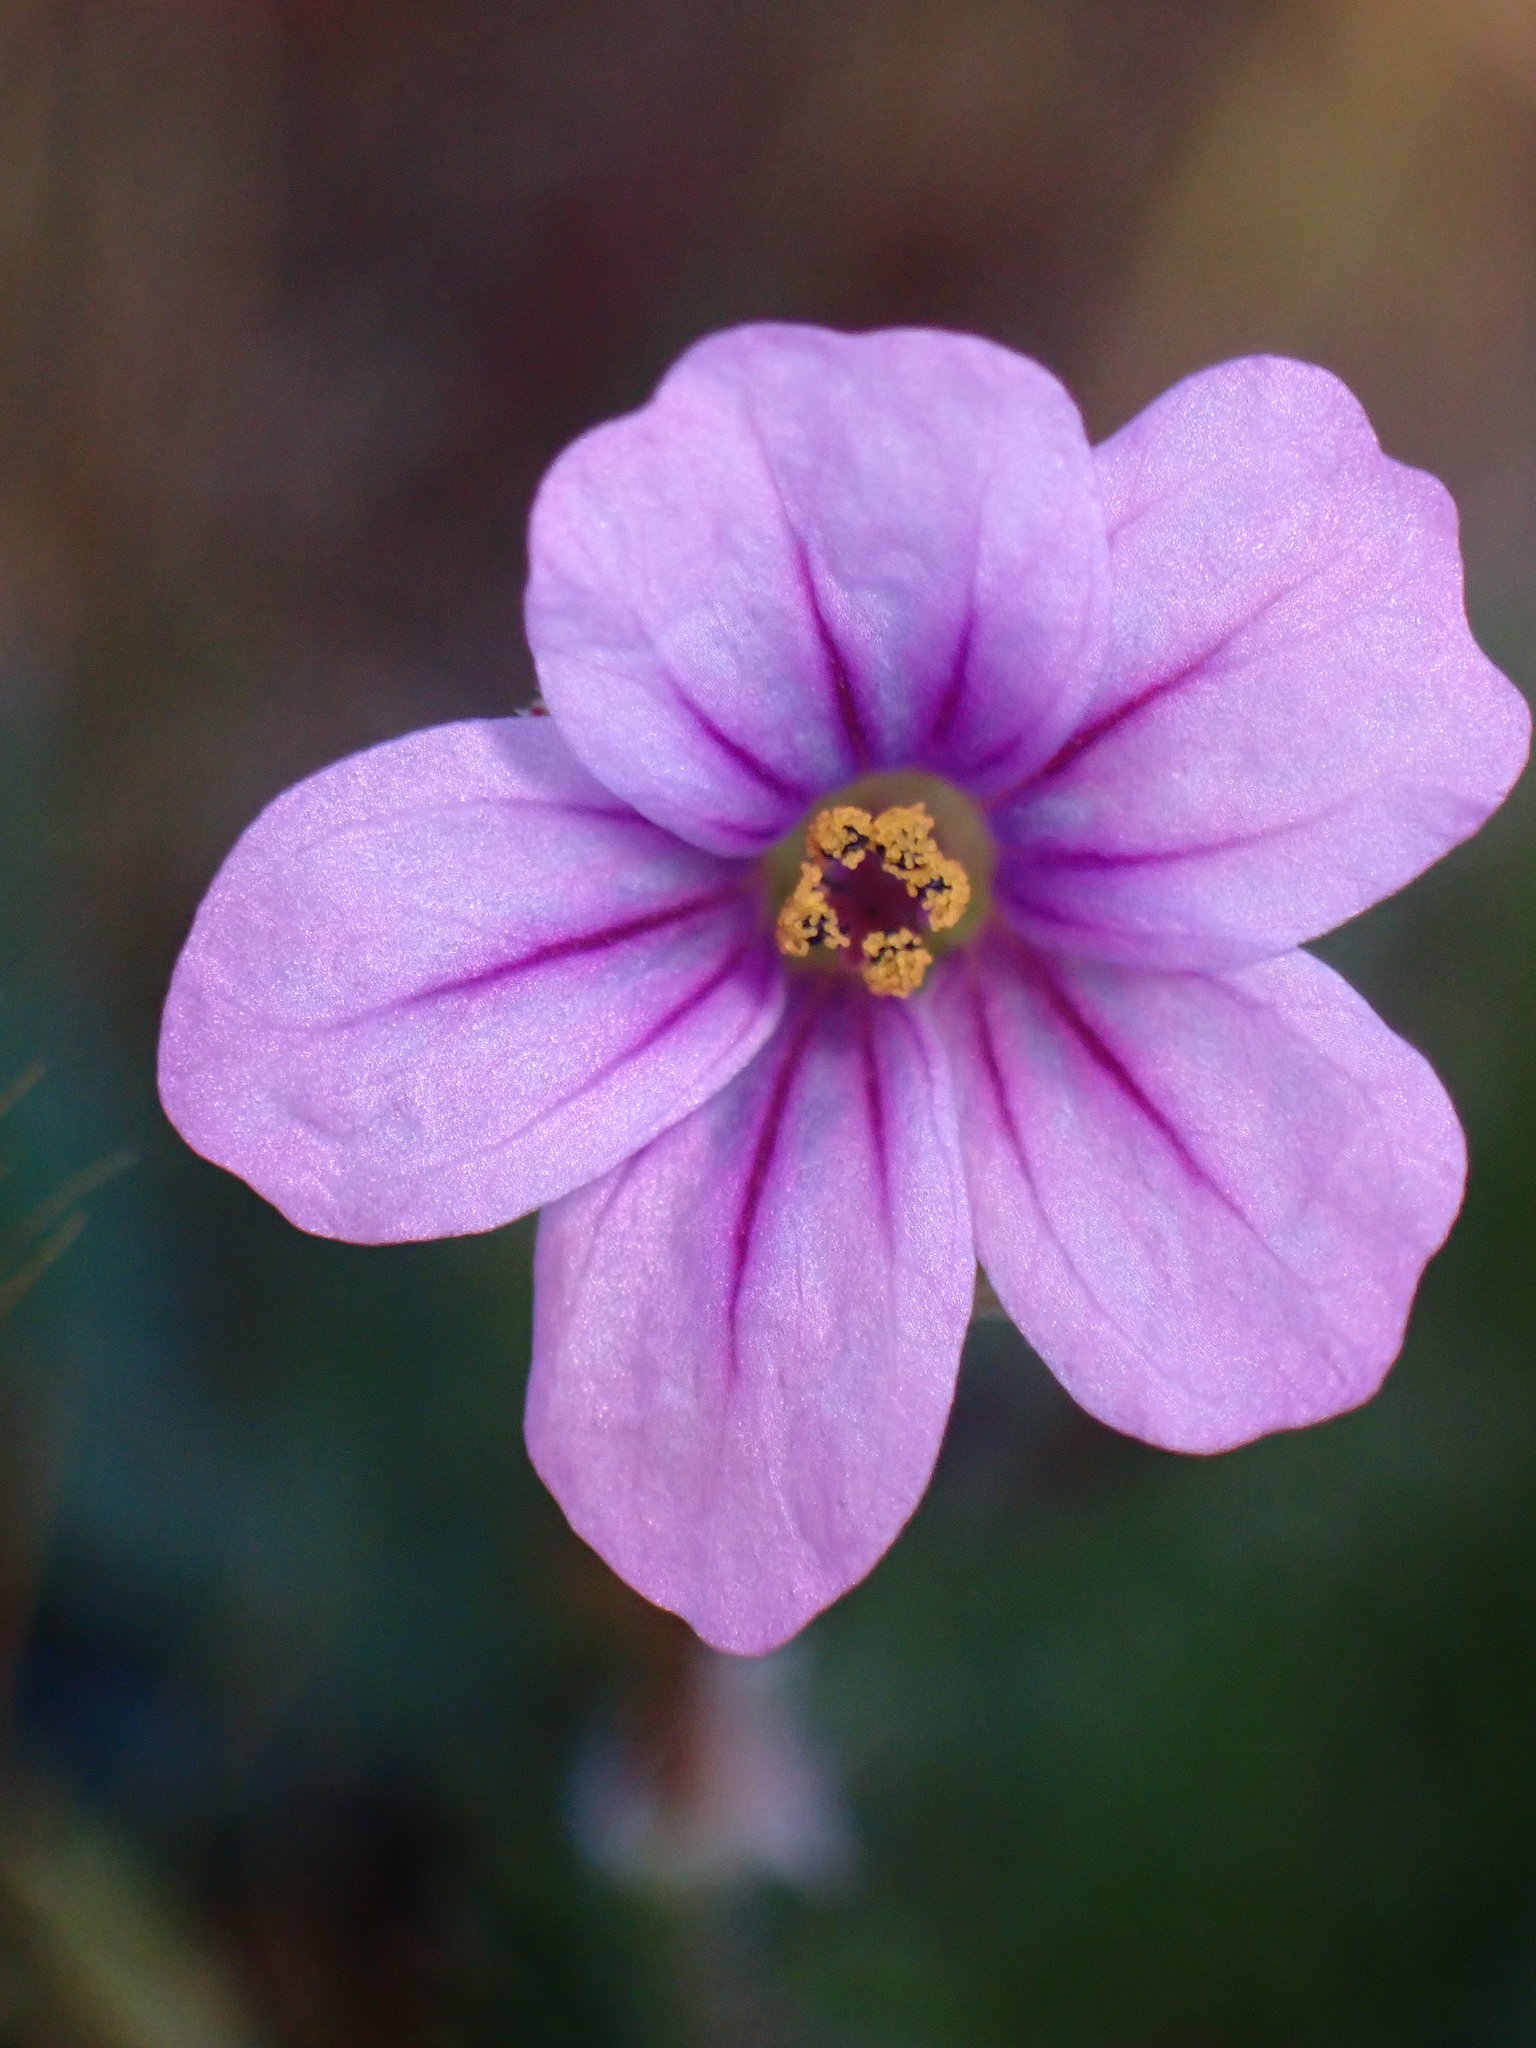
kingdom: Plantae
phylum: Tracheophyta
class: Magnoliopsida
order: Geraniales
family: Geraniaceae
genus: Erodium
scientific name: Erodium botrys
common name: Mediterranean stork's-bill
